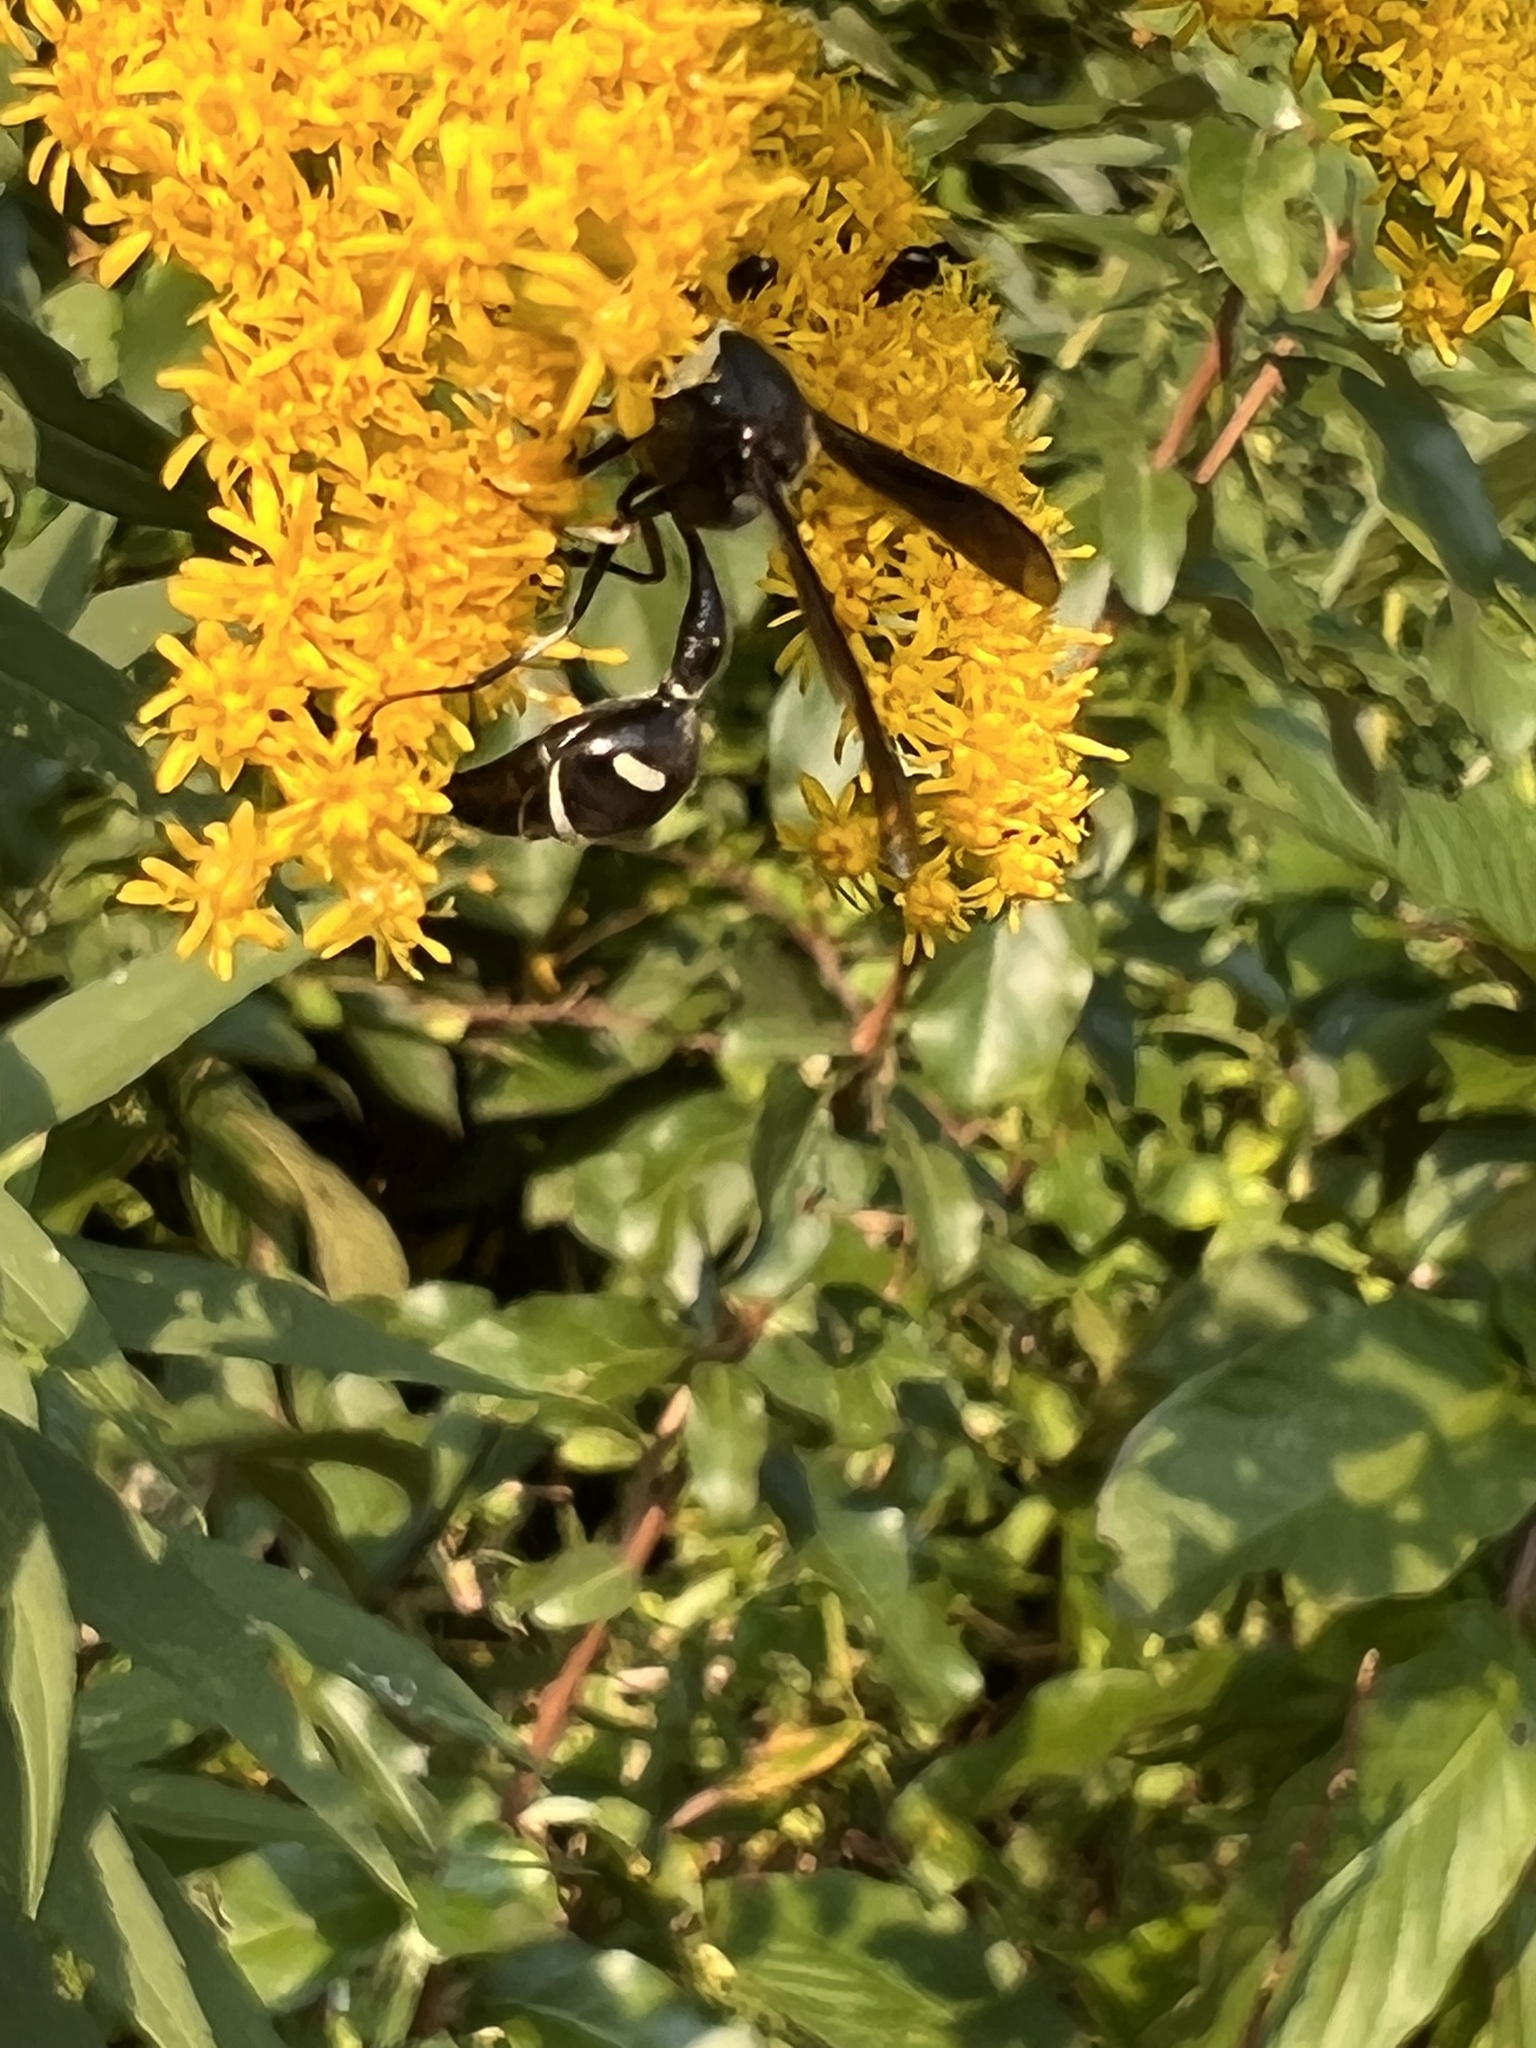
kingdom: Animalia
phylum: Arthropoda
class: Insecta
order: Hymenoptera
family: Vespidae
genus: Eumenes
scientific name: Eumenes fraternus
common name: Fraternal potter wasp
